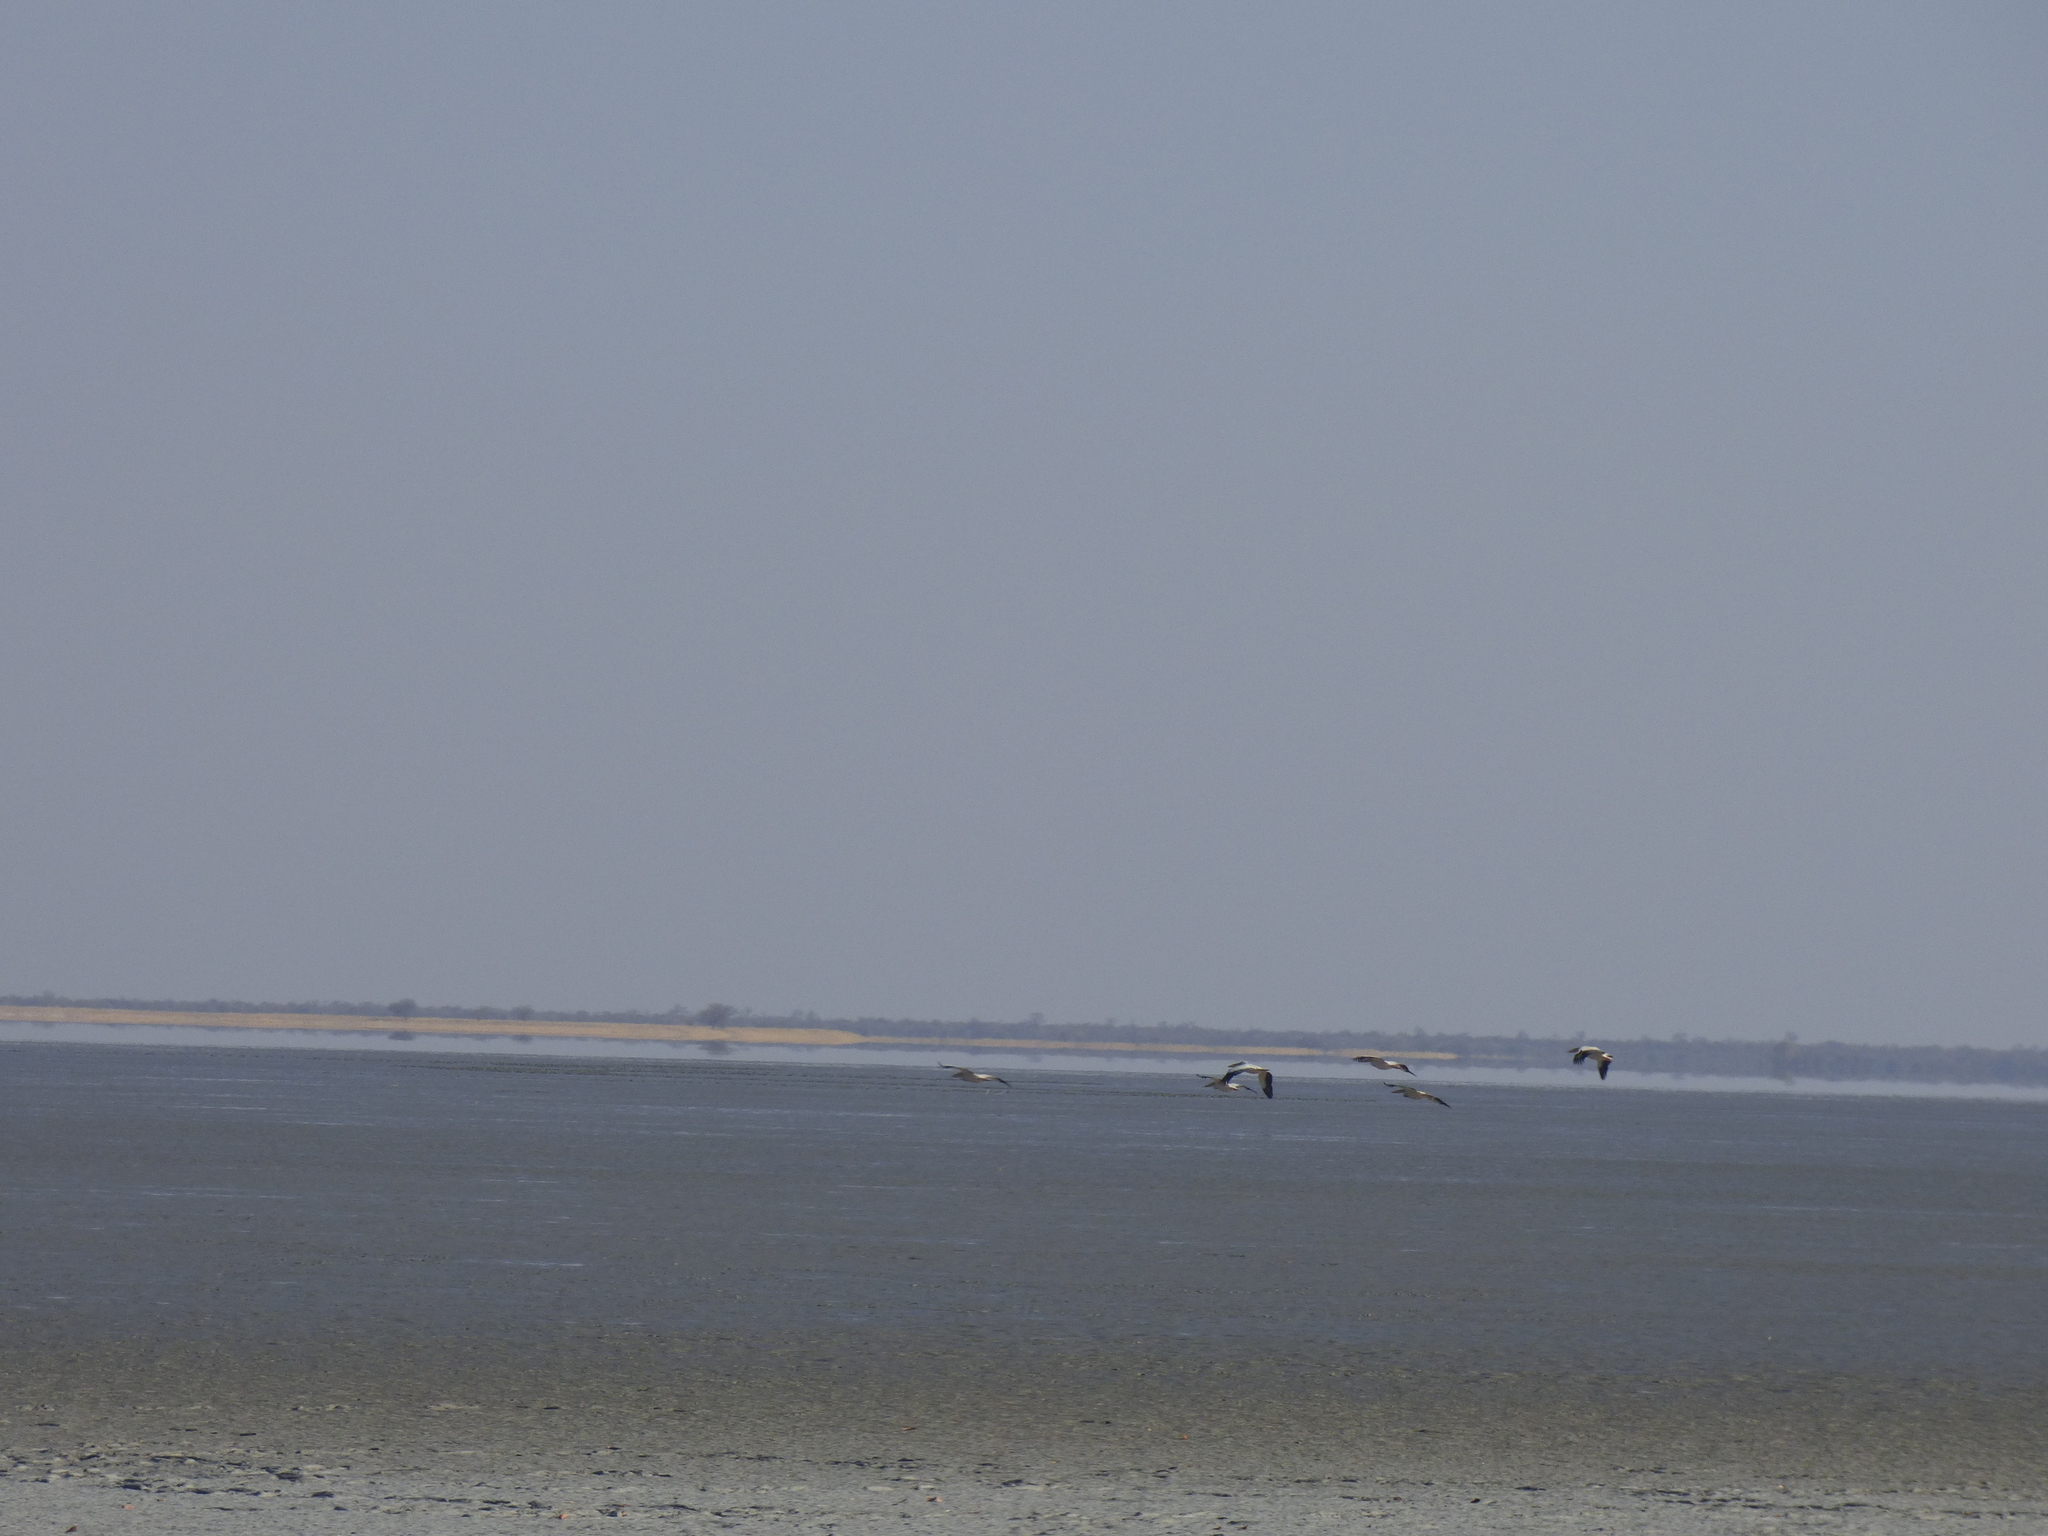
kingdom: Animalia
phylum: Chordata
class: Aves
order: Pelecaniformes
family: Pelecanidae
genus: Pelecanus
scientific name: Pelecanus onocrotalus
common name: Great white pelican
